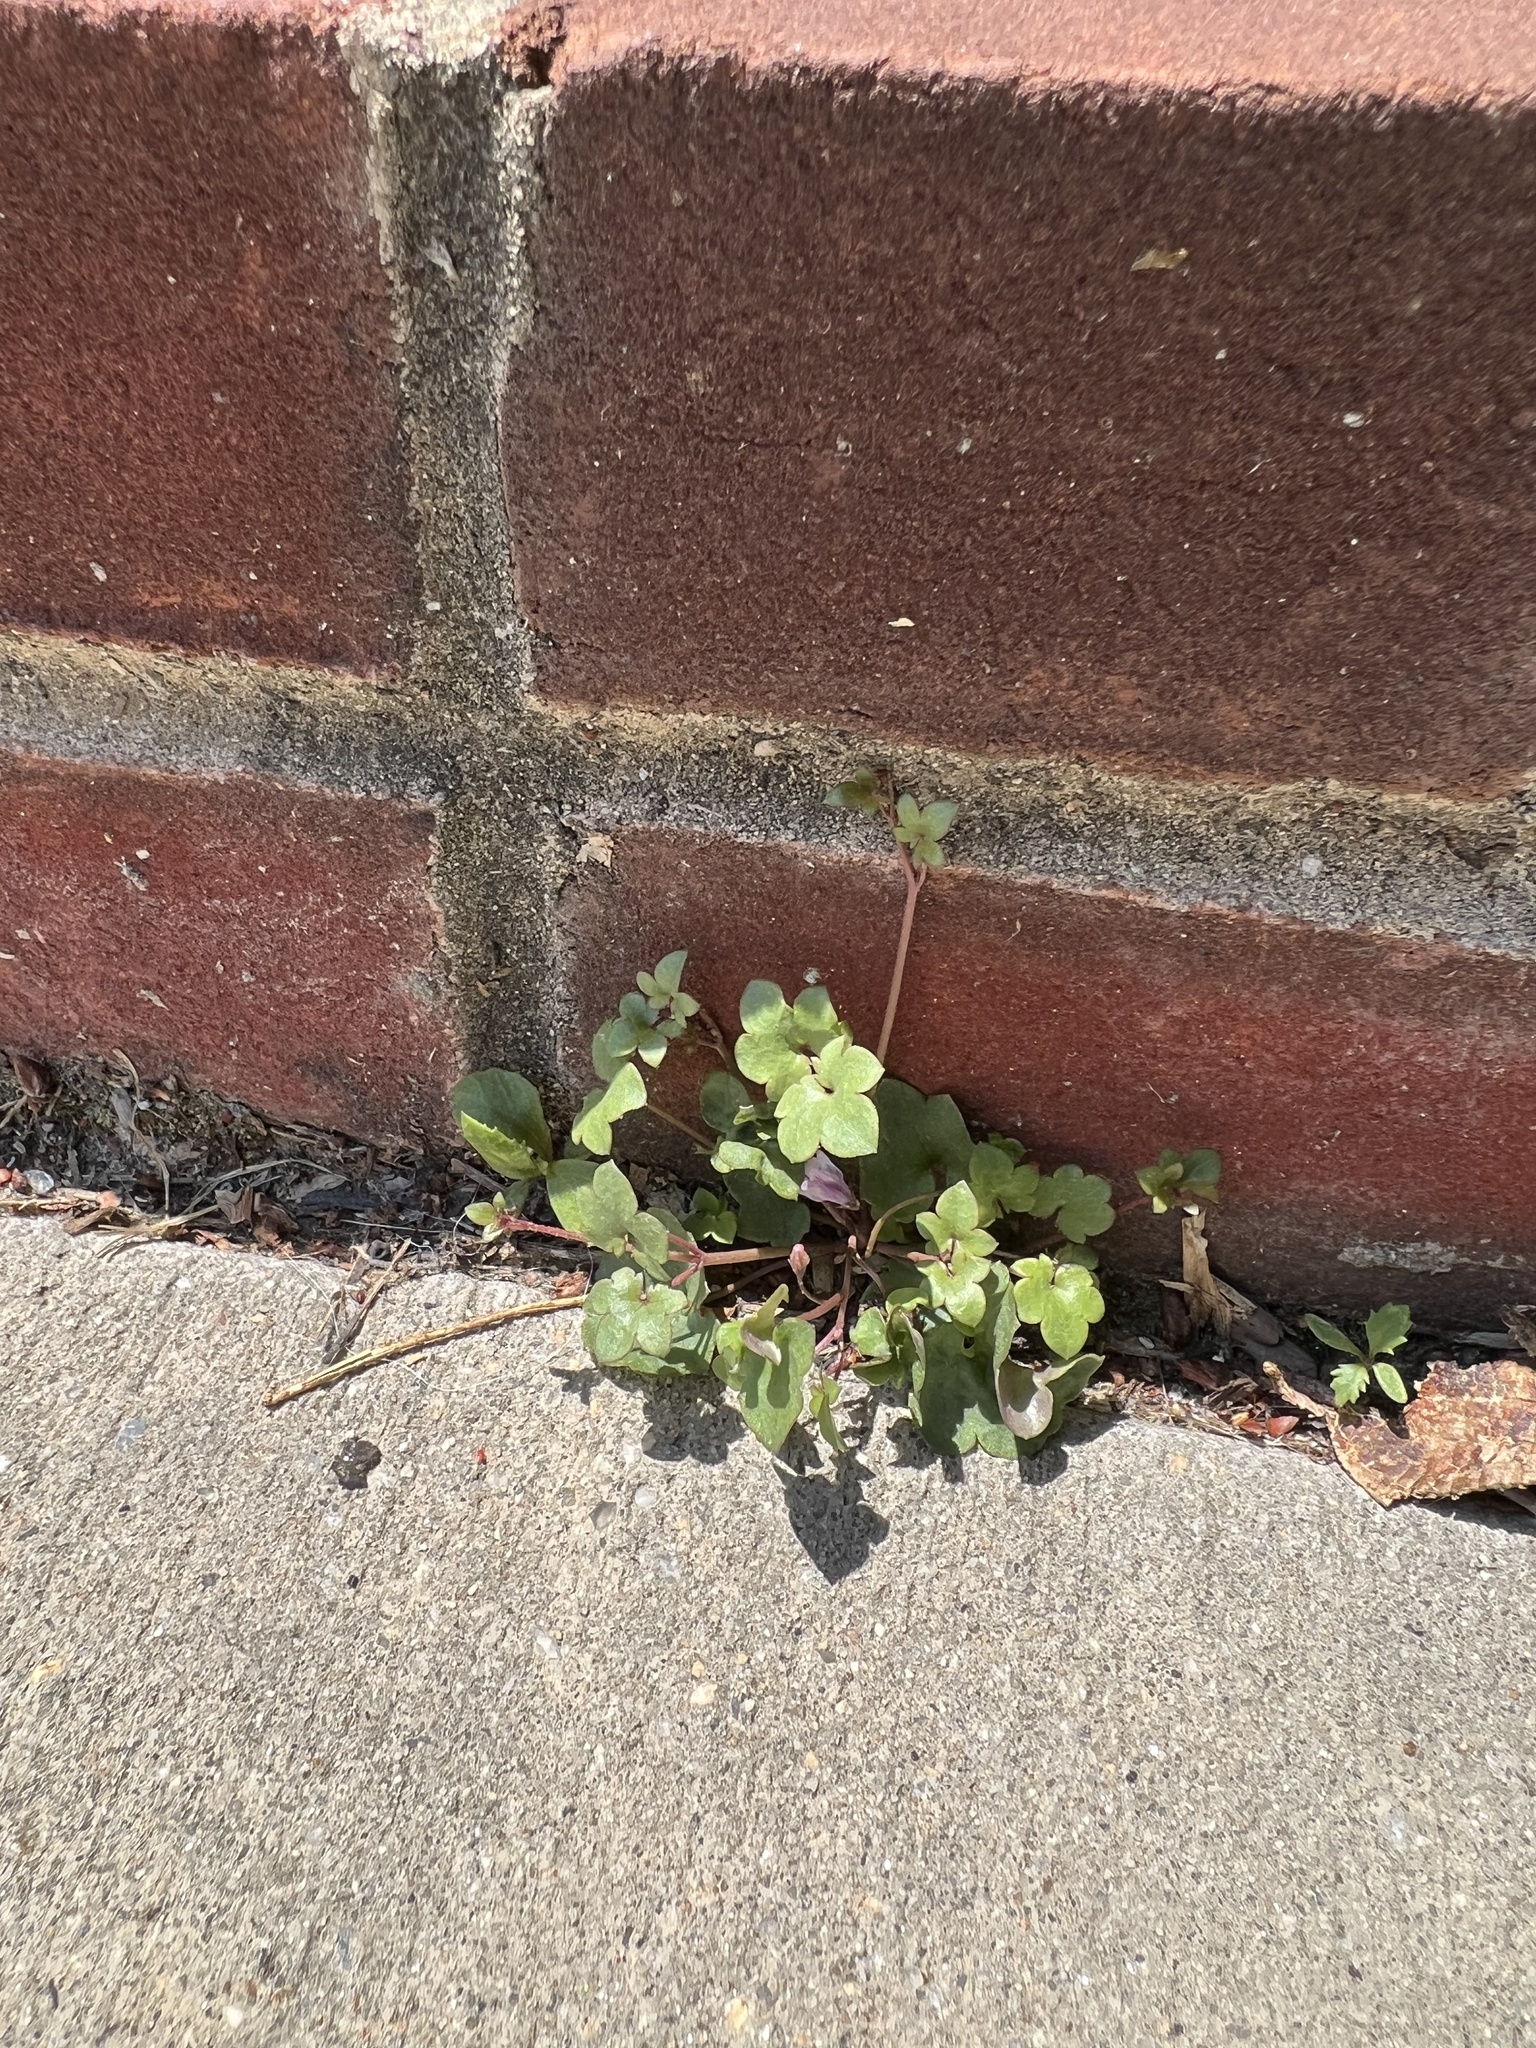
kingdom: Plantae
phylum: Tracheophyta
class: Magnoliopsida
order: Lamiales
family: Plantaginaceae
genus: Cymbalaria
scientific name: Cymbalaria muralis
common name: Ivy-leaved toadflax
